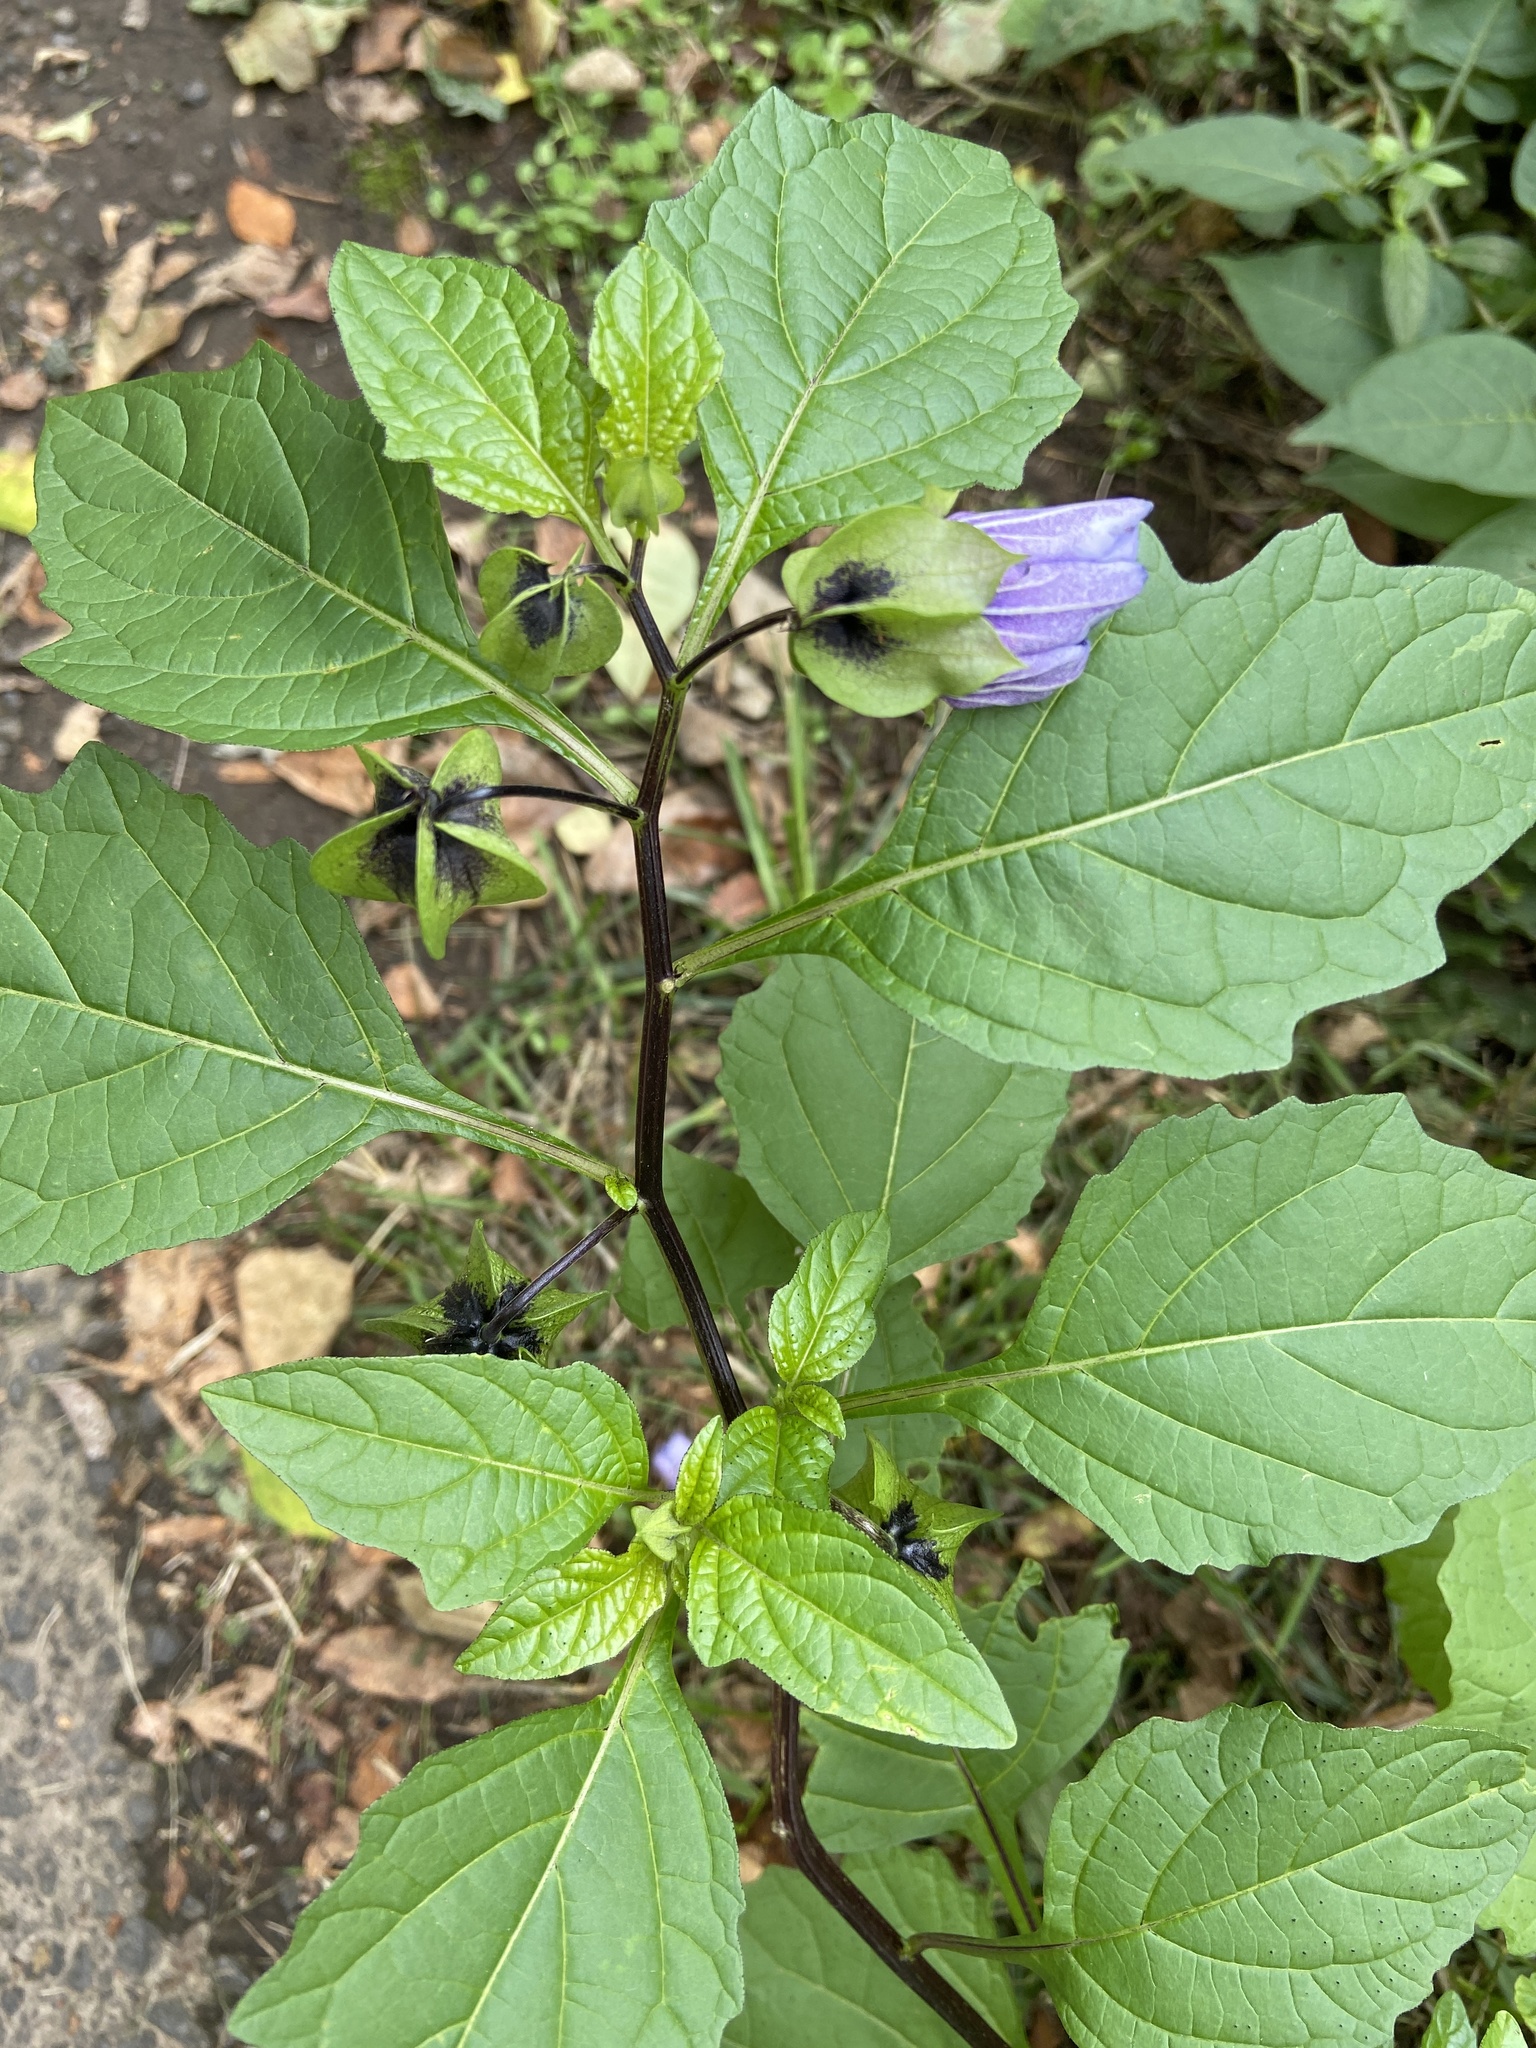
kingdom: Plantae
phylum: Tracheophyta
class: Magnoliopsida
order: Solanales
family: Solanaceae
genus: Nicandra
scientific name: Nicandra physalodes
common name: Apple-of-peru
